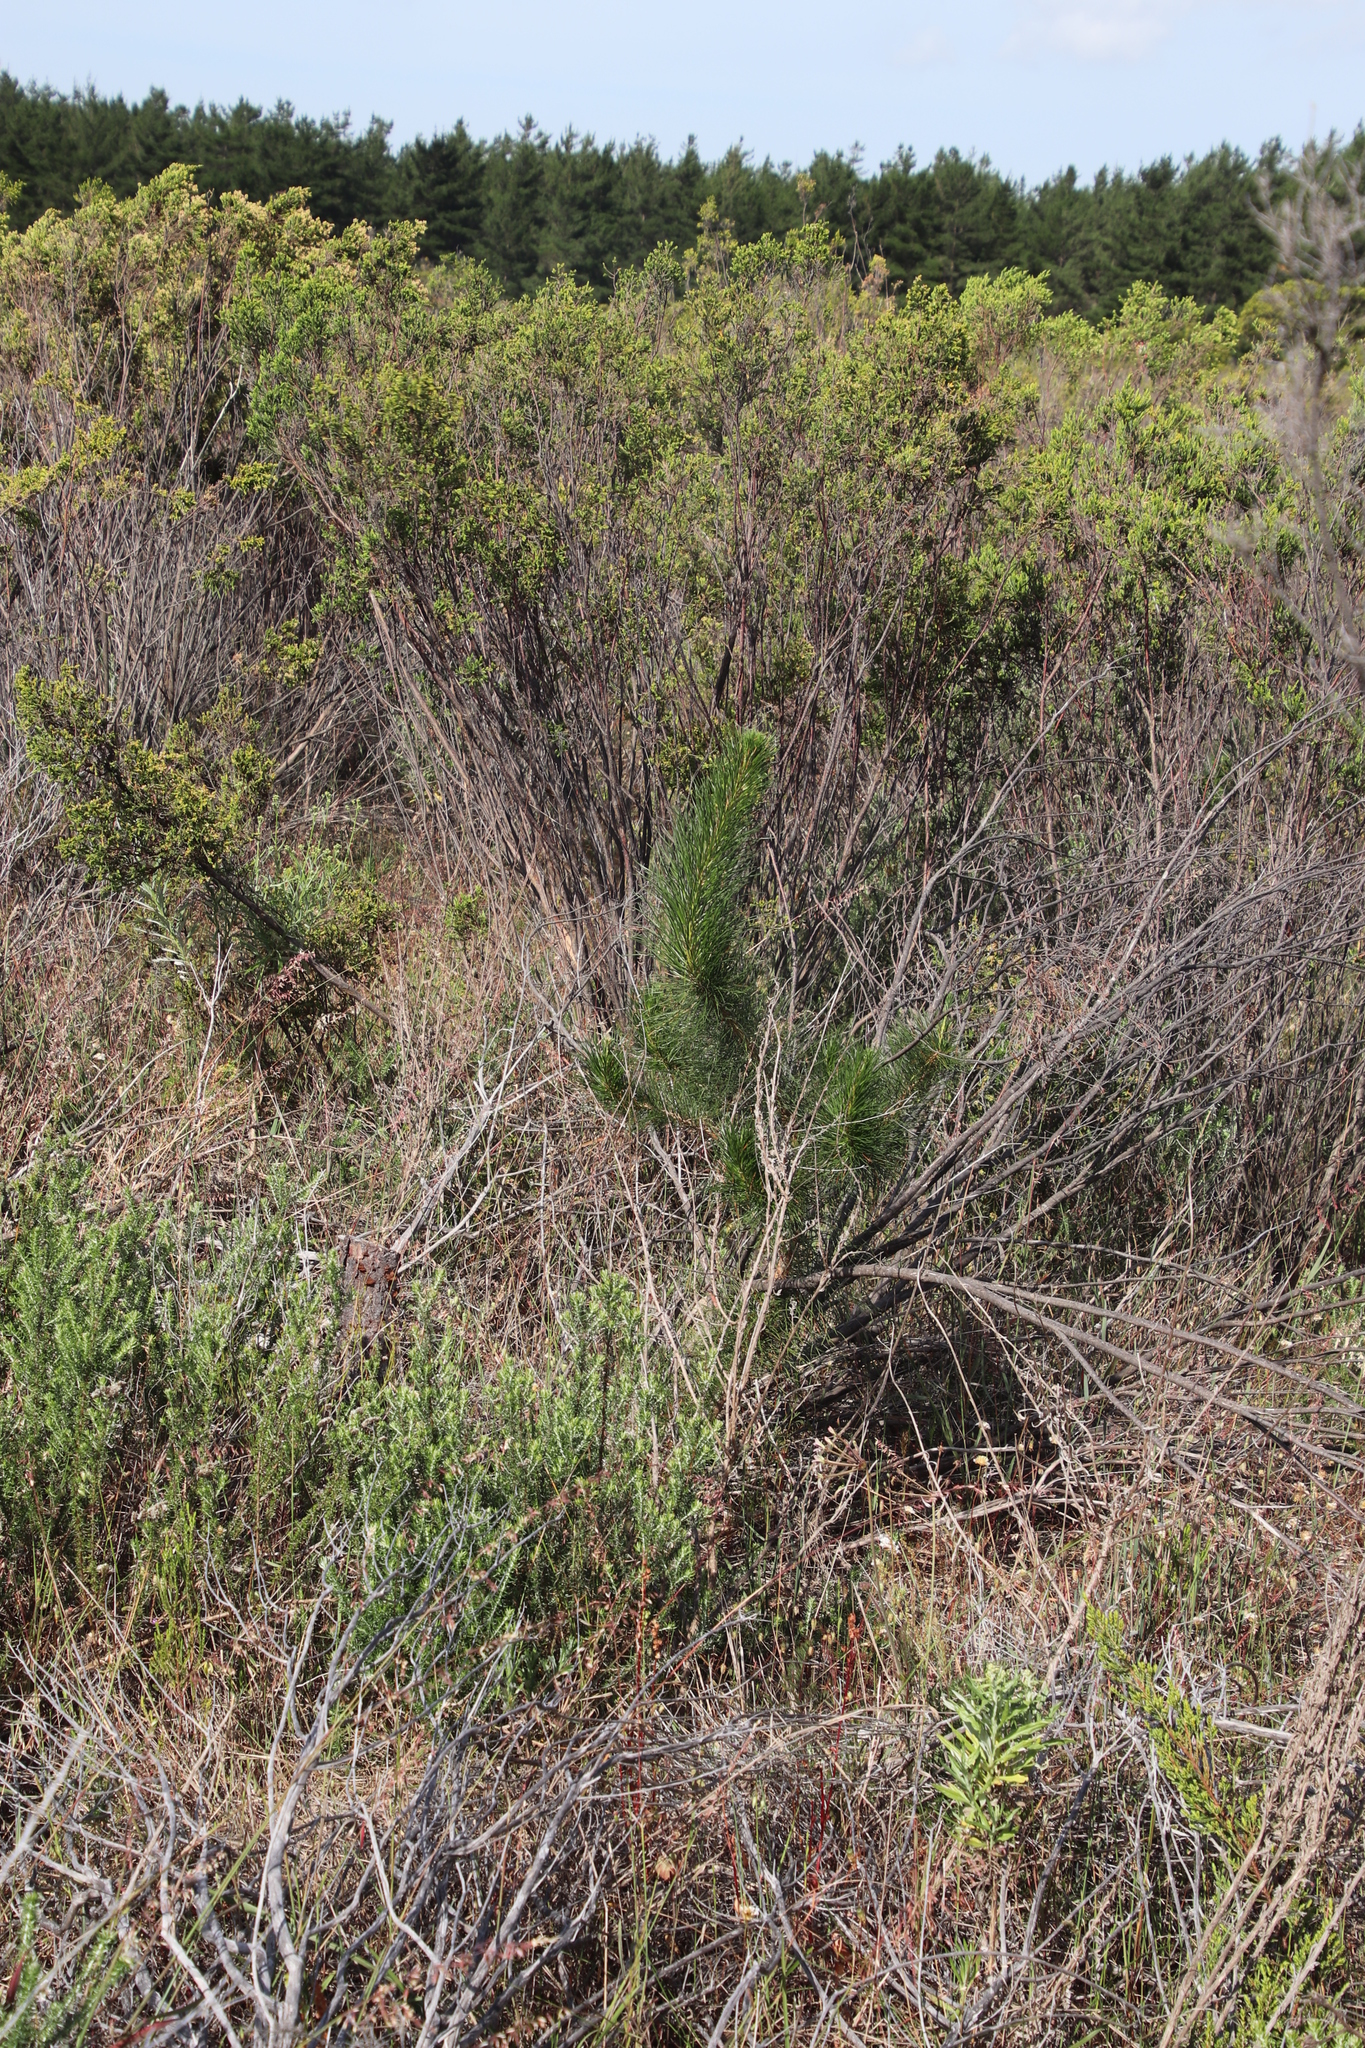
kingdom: Plantae
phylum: Tracheophyta
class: Pinopsida
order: Pinales
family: Pinaceae
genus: Pinus
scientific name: Pinus radiata
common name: Monterey pine
